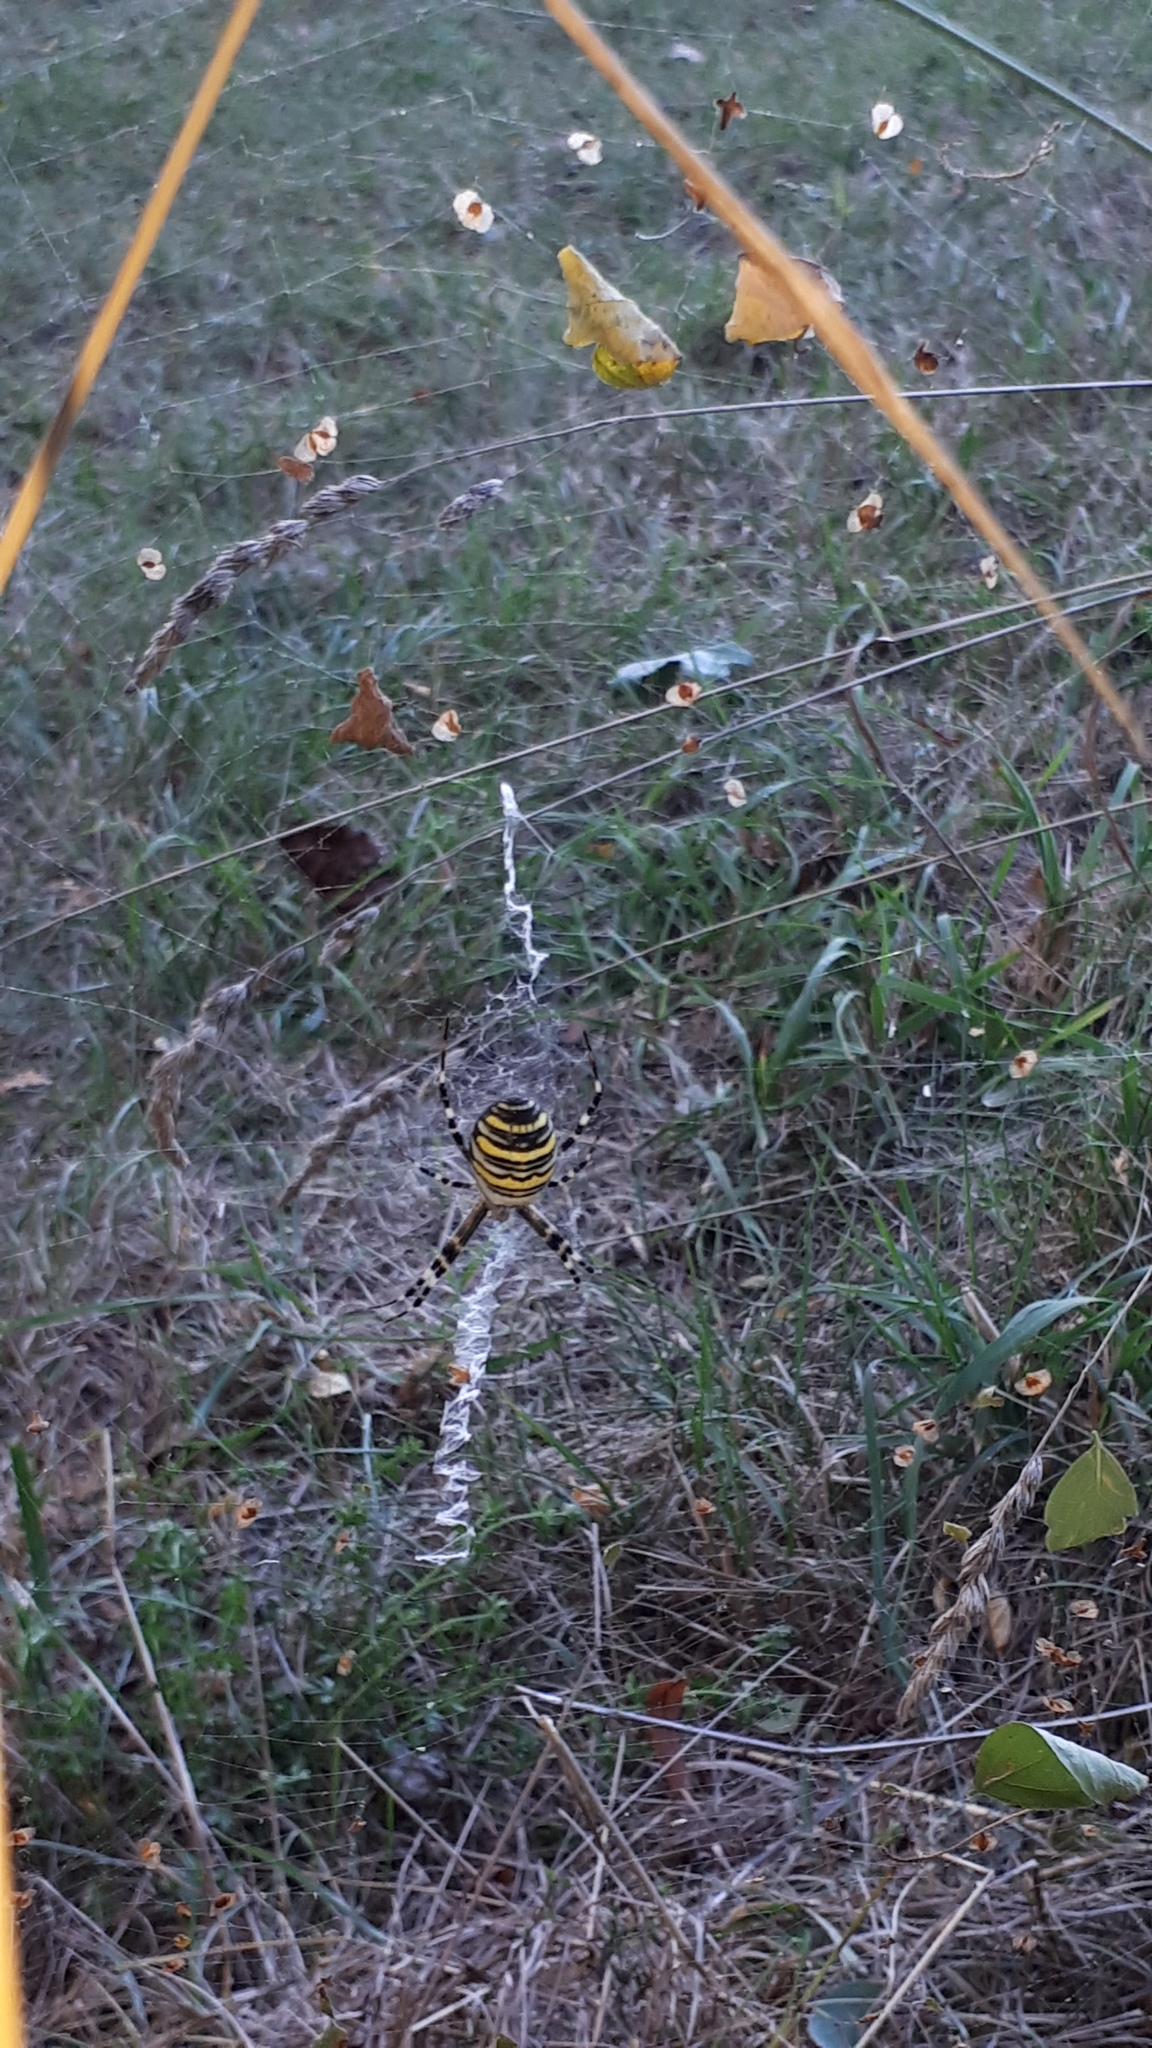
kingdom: Animalia
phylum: Arthropoda
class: Arachnida
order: Araneae
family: Araneidae
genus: Argiope
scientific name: Argiope bruennichi
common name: Wasp spider
